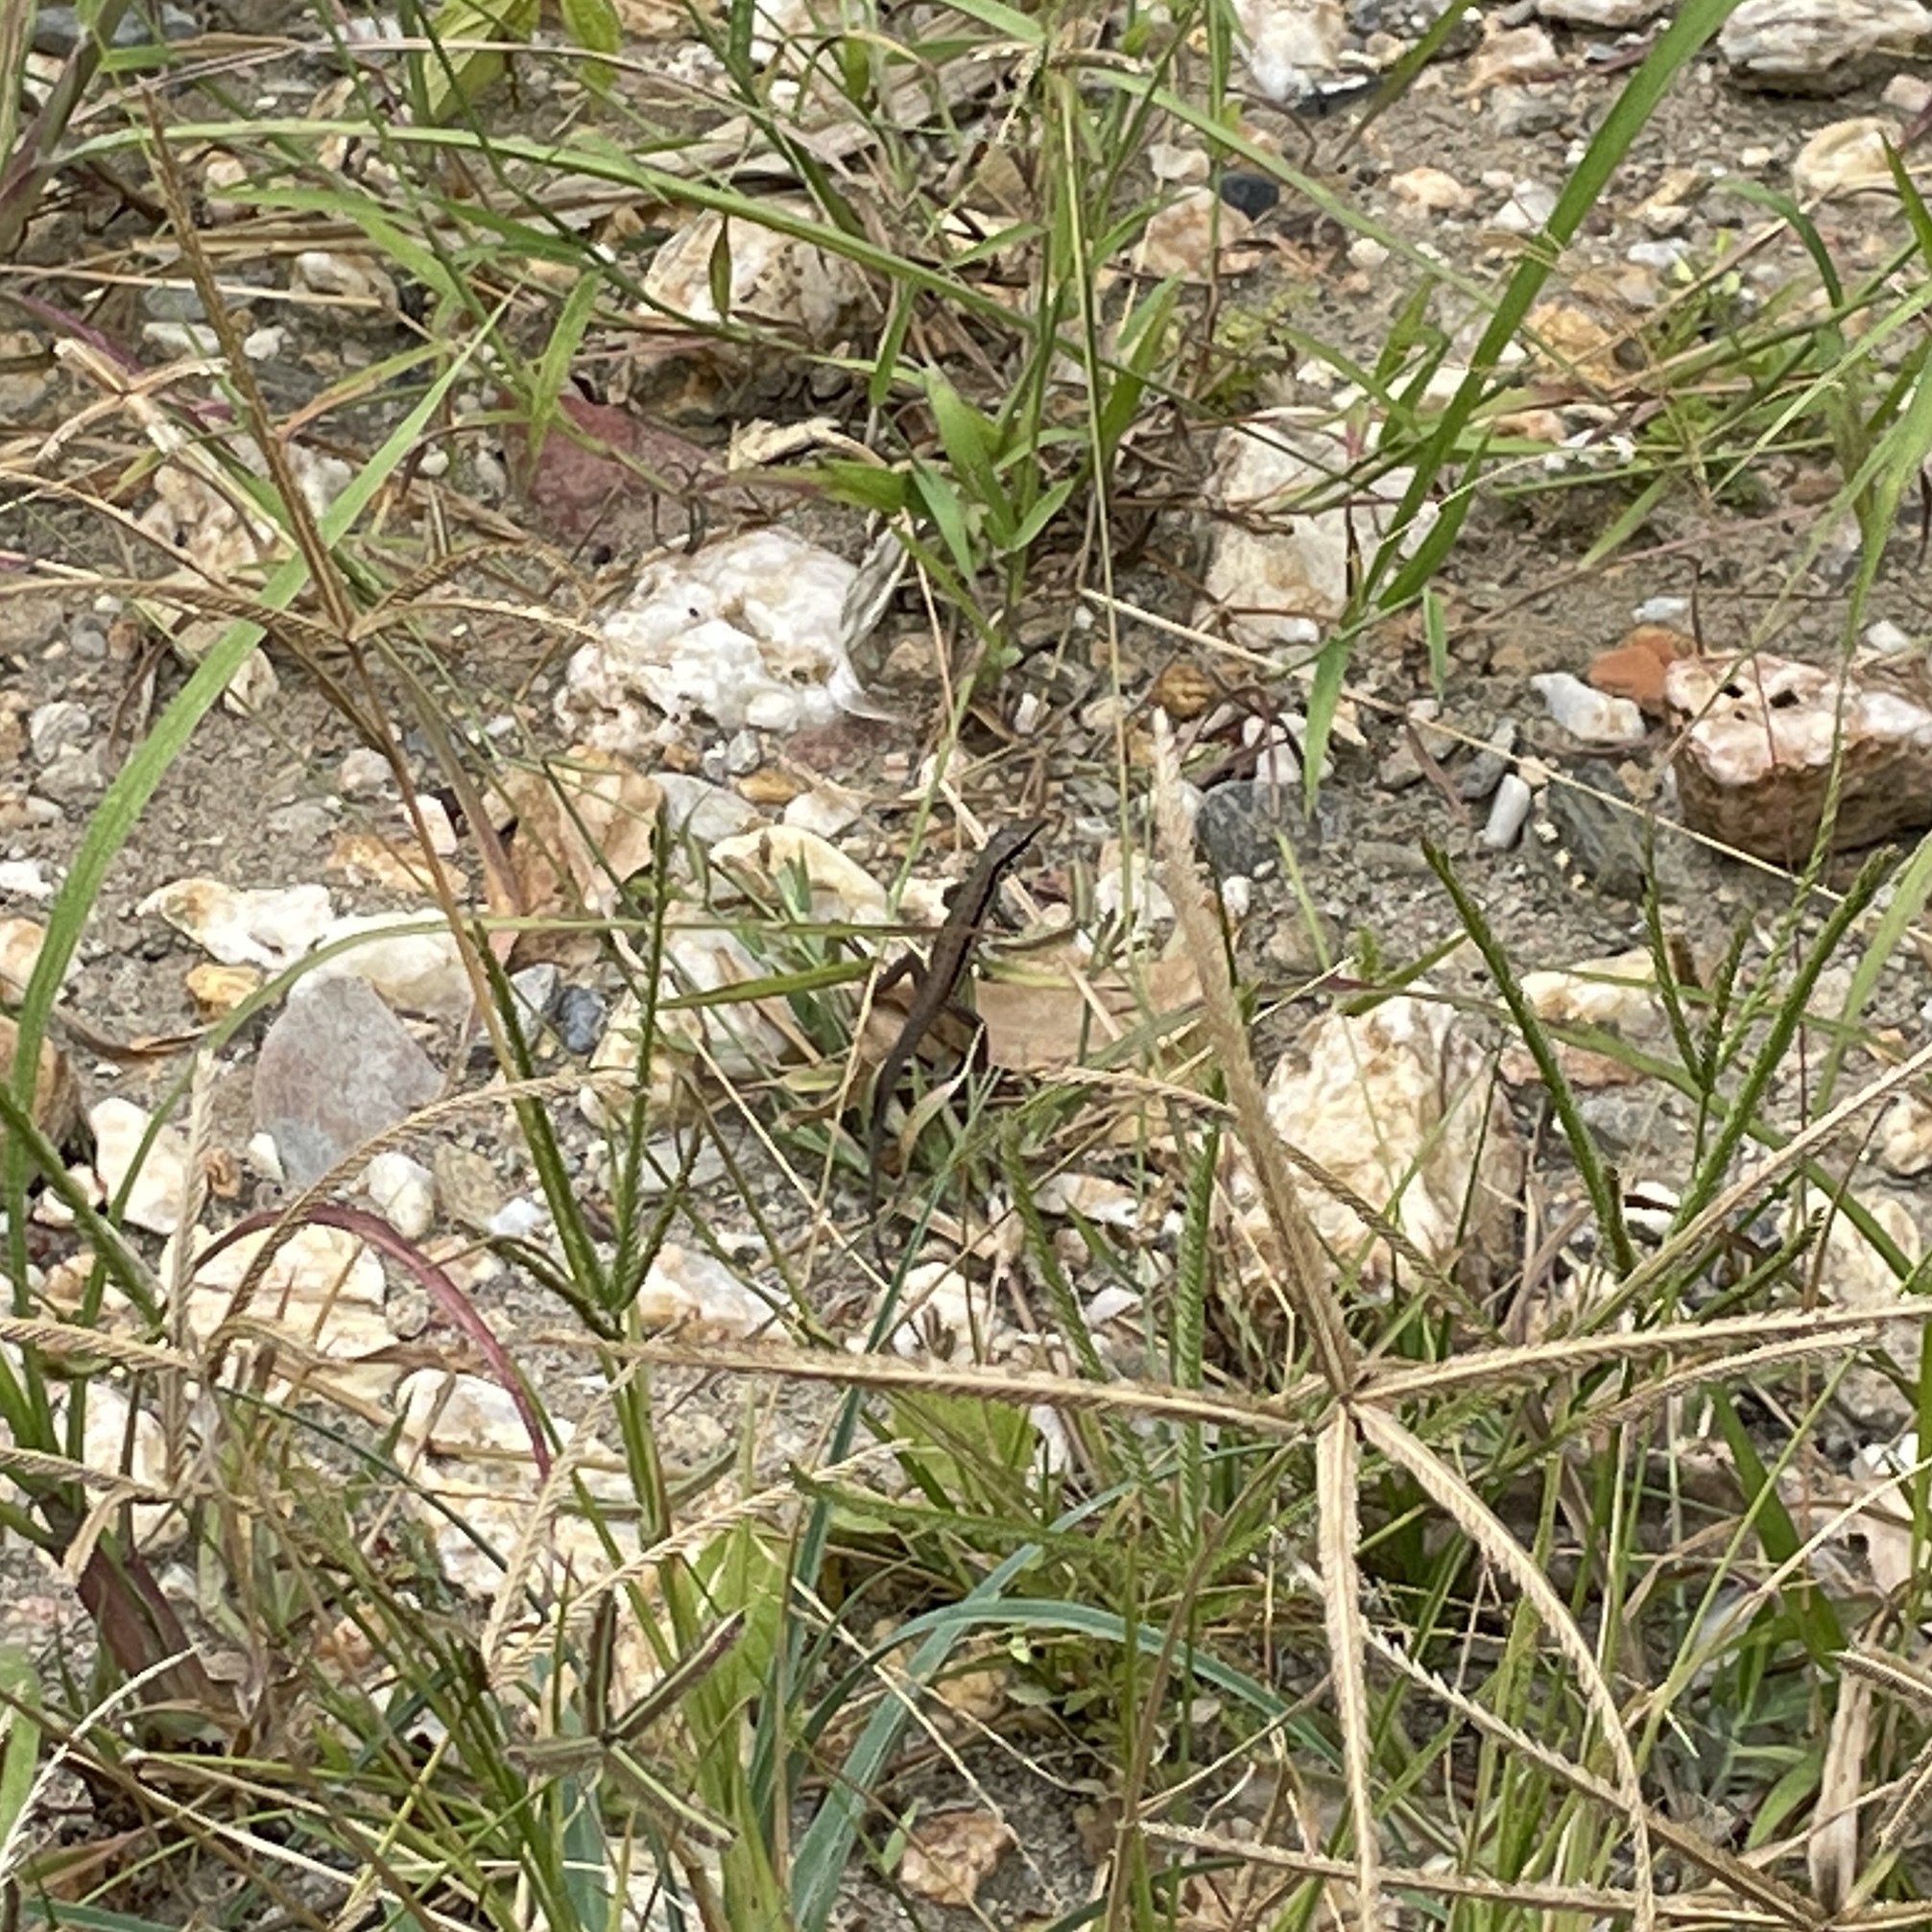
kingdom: Animalia
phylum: Chordata
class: Squamata
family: Teiidae
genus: Ameiva
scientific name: Ameiva atrigularis
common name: Venezuelan ameiva
